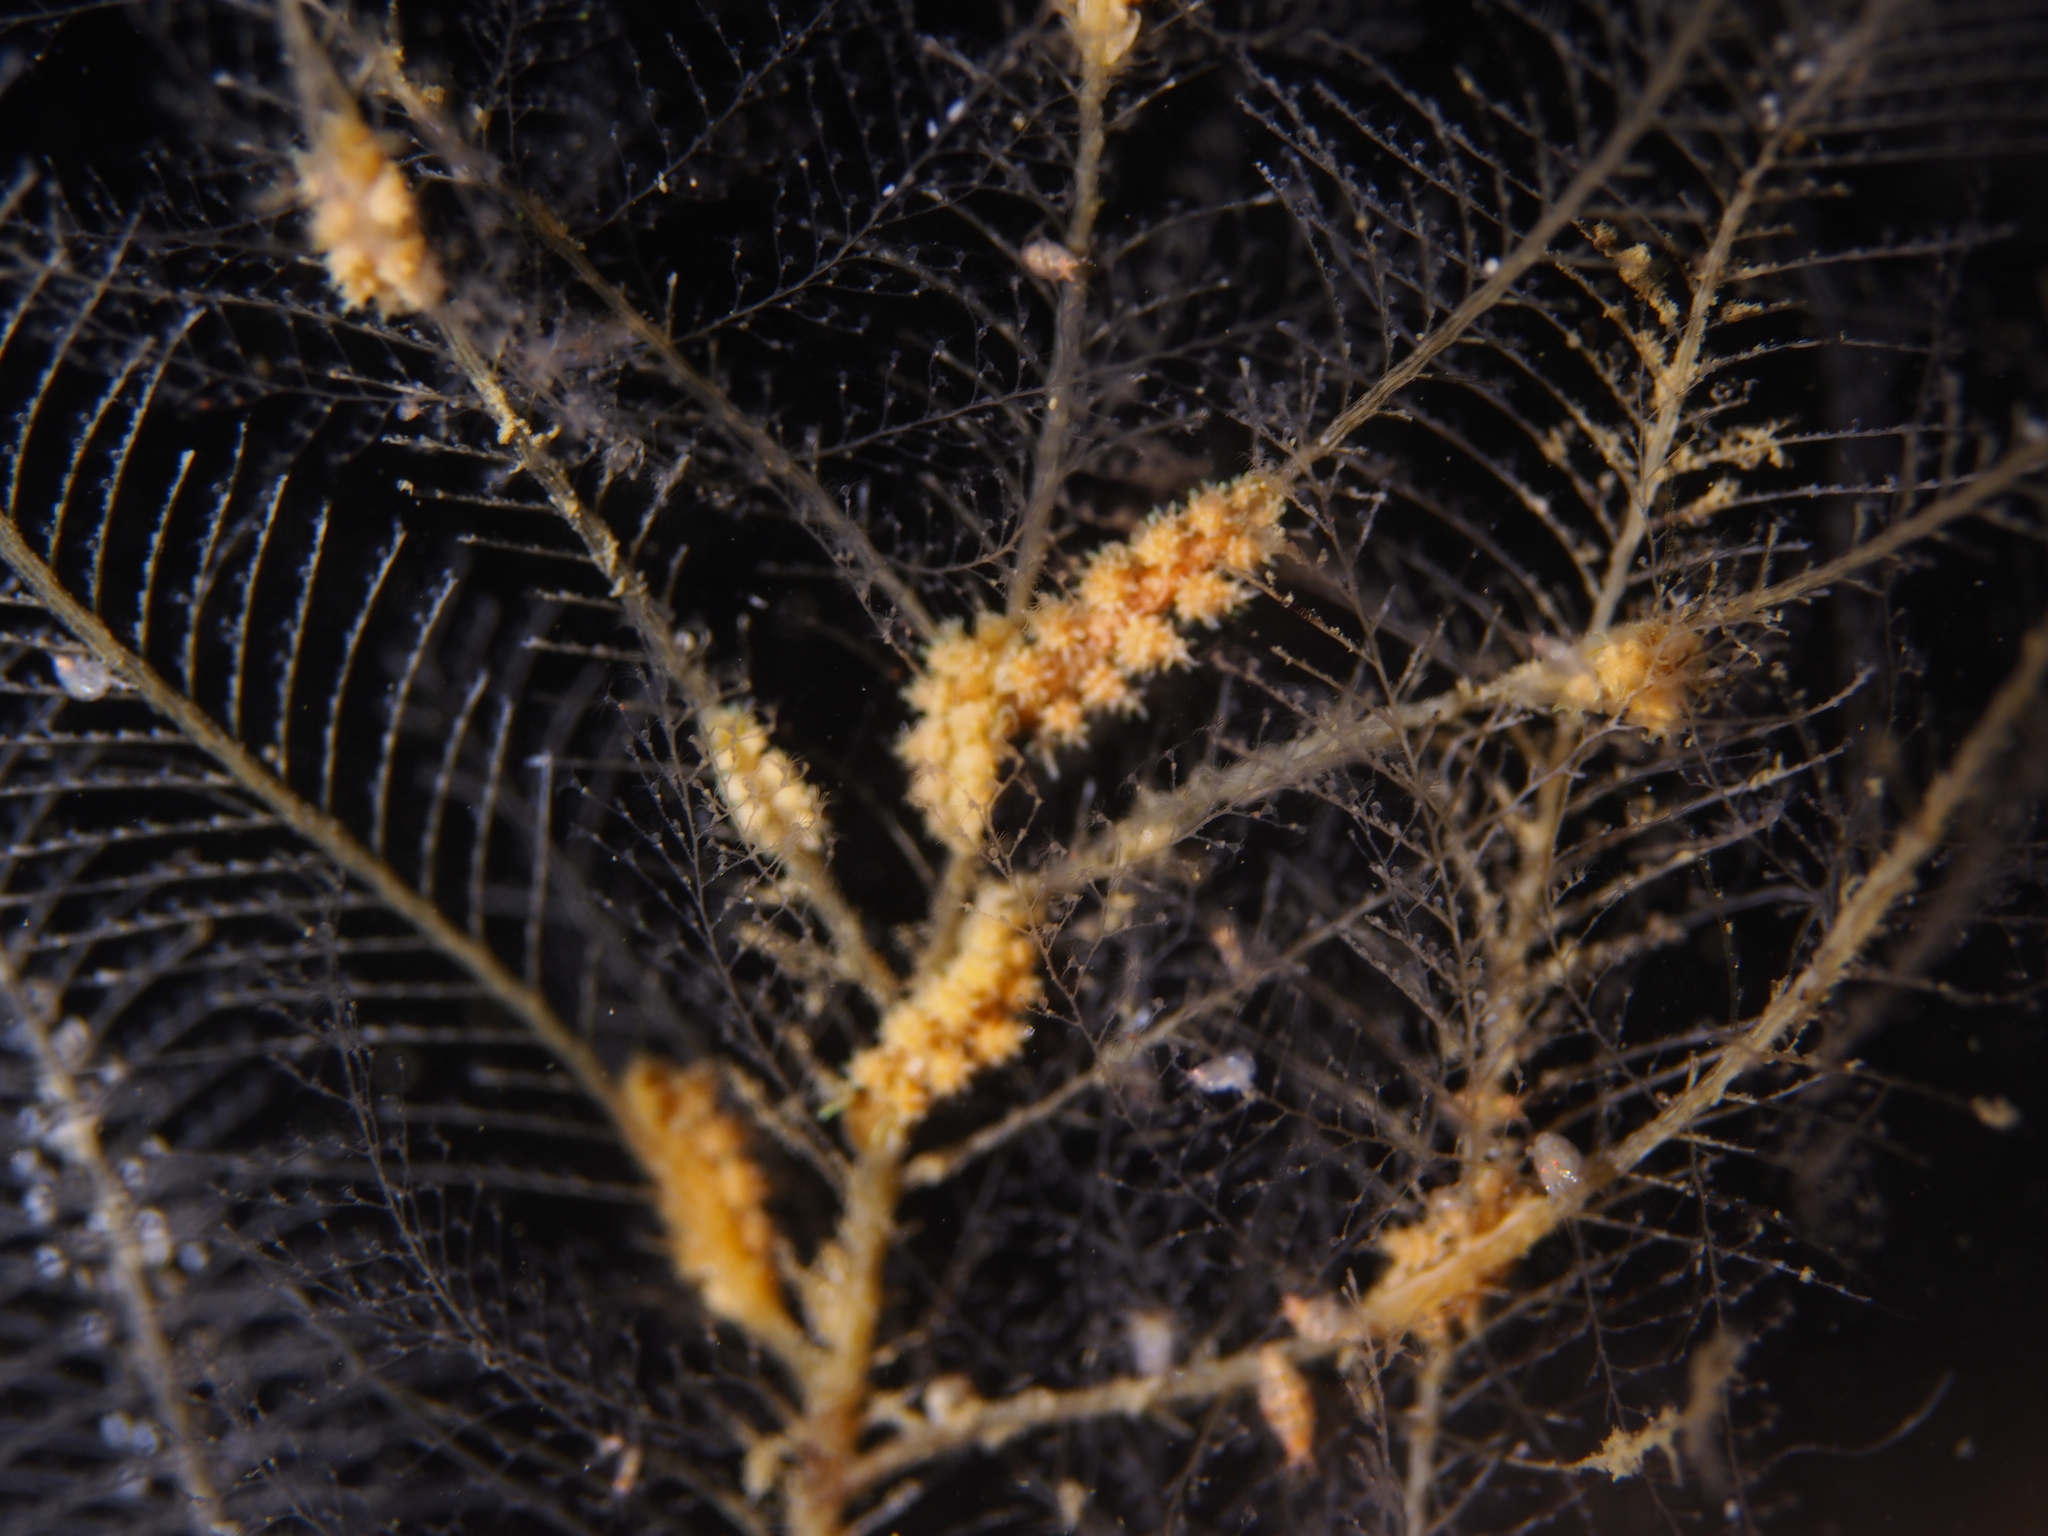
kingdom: Animalia
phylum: Mollusca
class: Gastropoda
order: Nudibranchia
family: Dotidae
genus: Doto
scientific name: Doto hystrix
